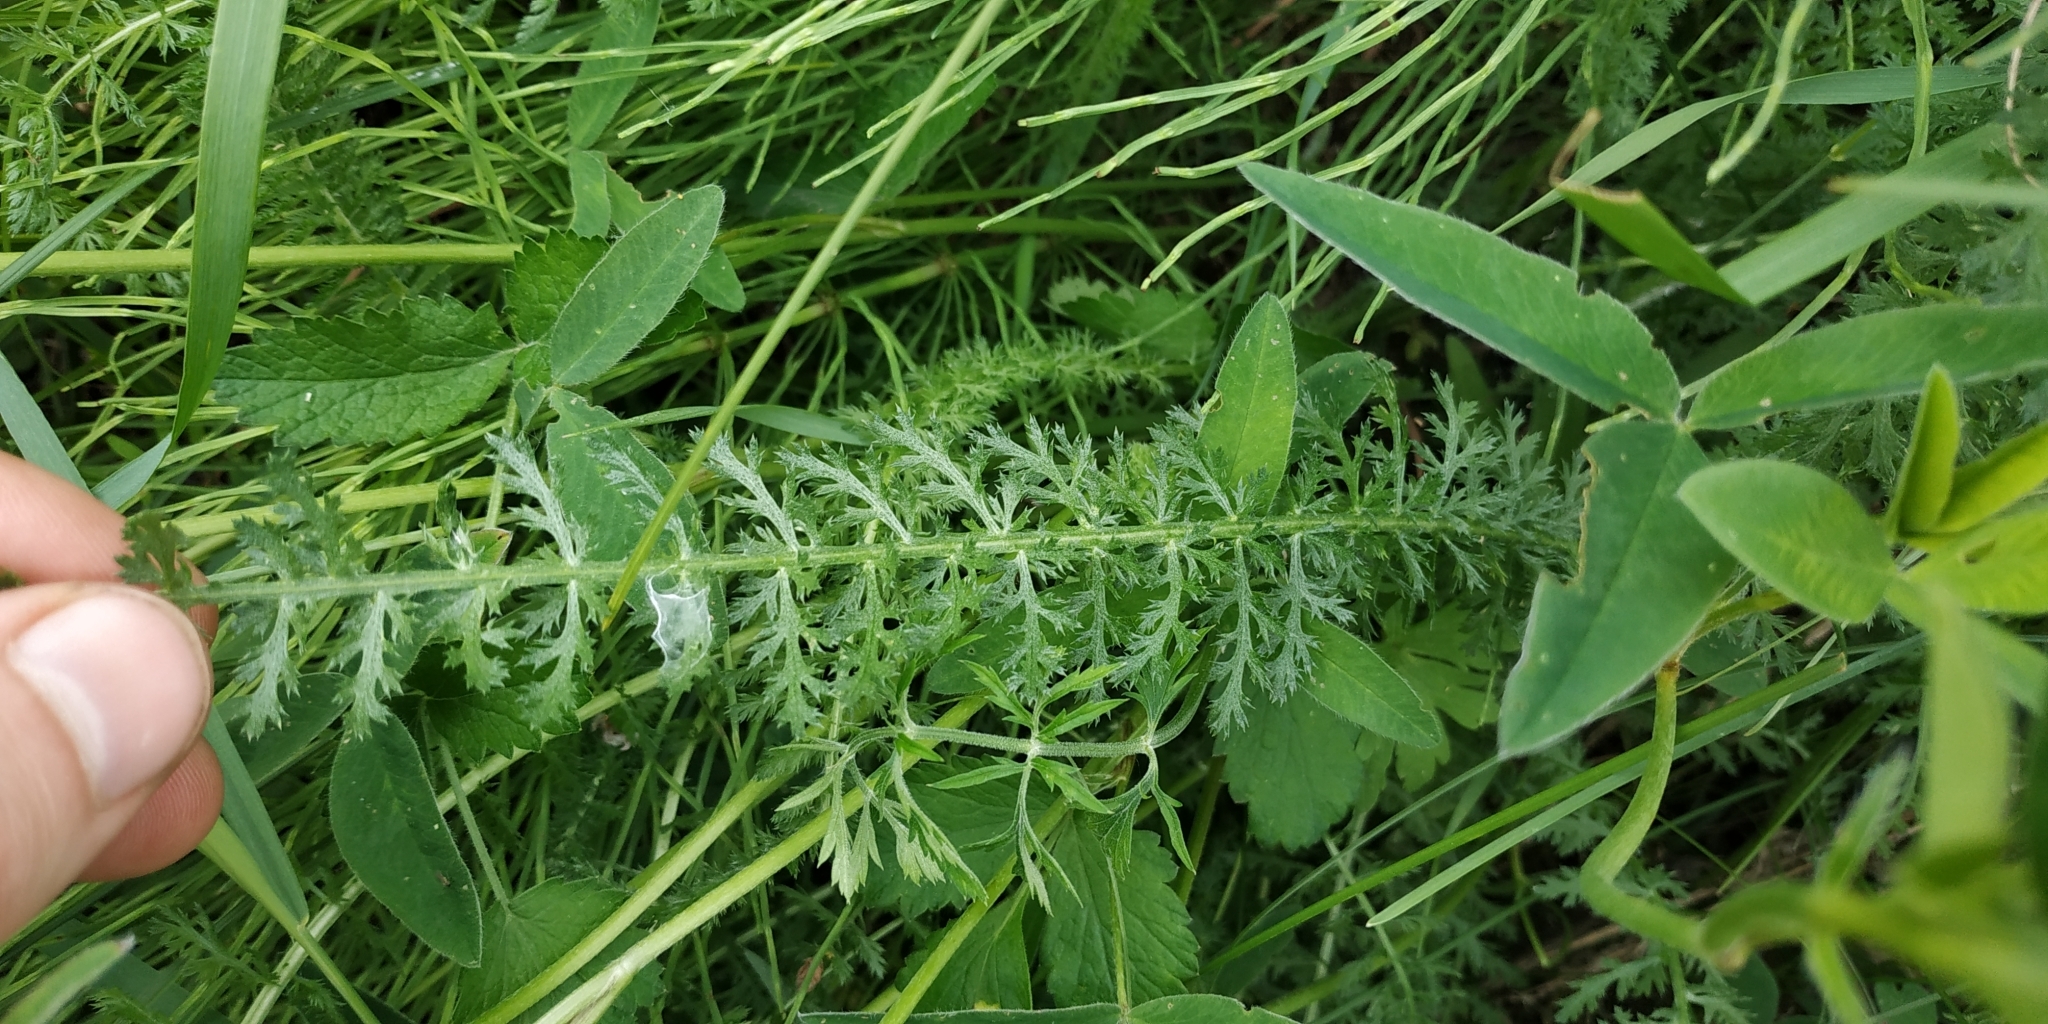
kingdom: Plantae
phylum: Tracheophyta
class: Magnoliopsida
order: Asterales
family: Asteraceae
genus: Achillea
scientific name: Achillea millefolium
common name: Yarrow
